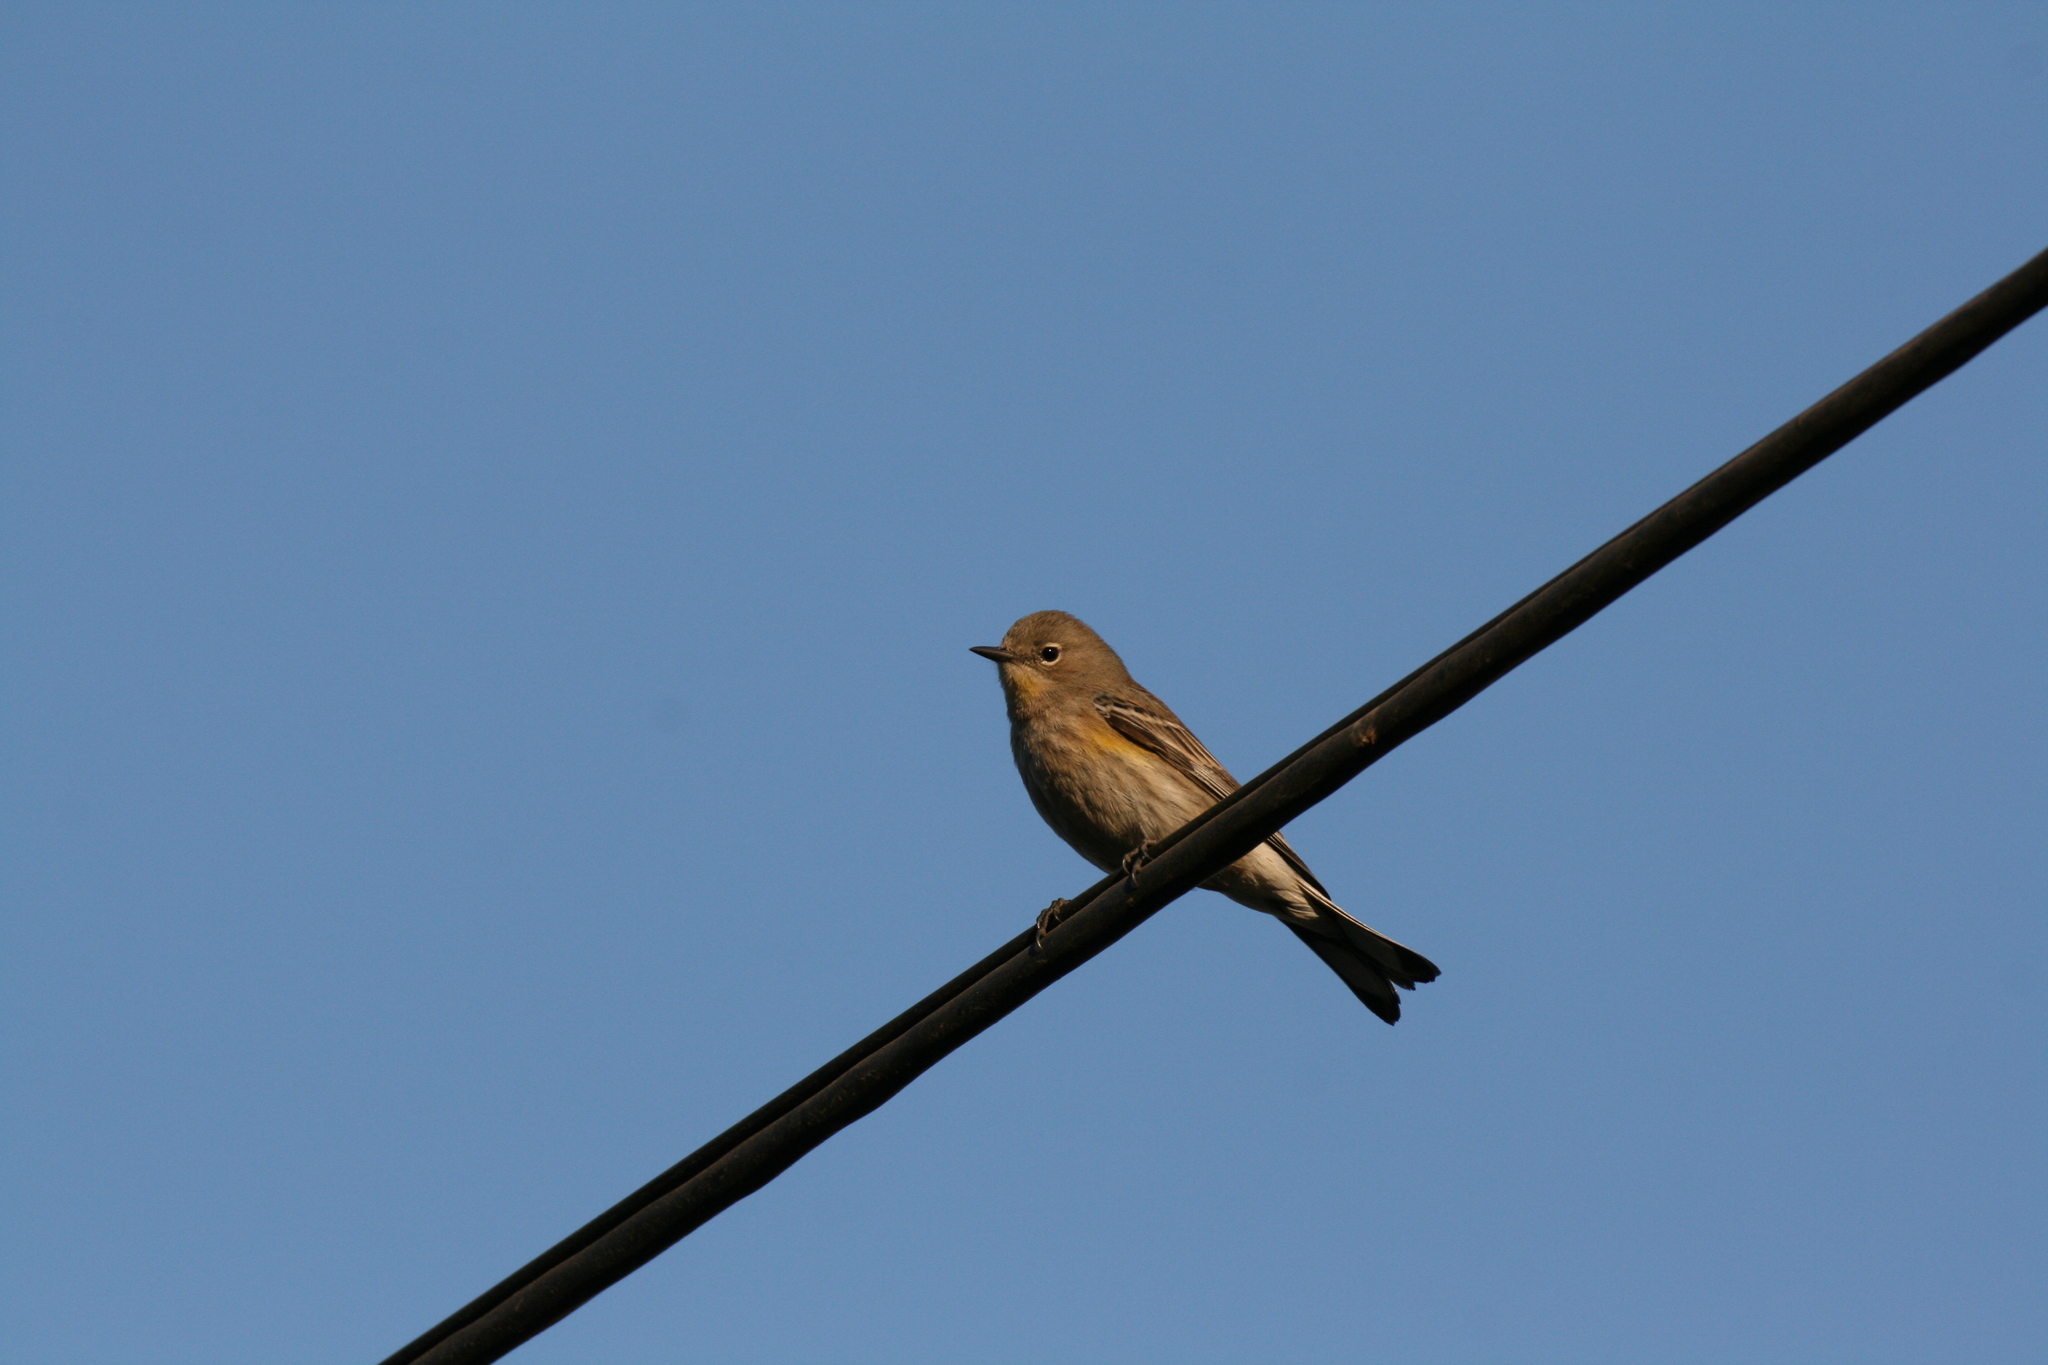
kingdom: Animalia
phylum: Chordata
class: Aves
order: Passeriformes
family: Parulidae
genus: Setophaga
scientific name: Setophaga coronata
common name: Myrtle warbler
